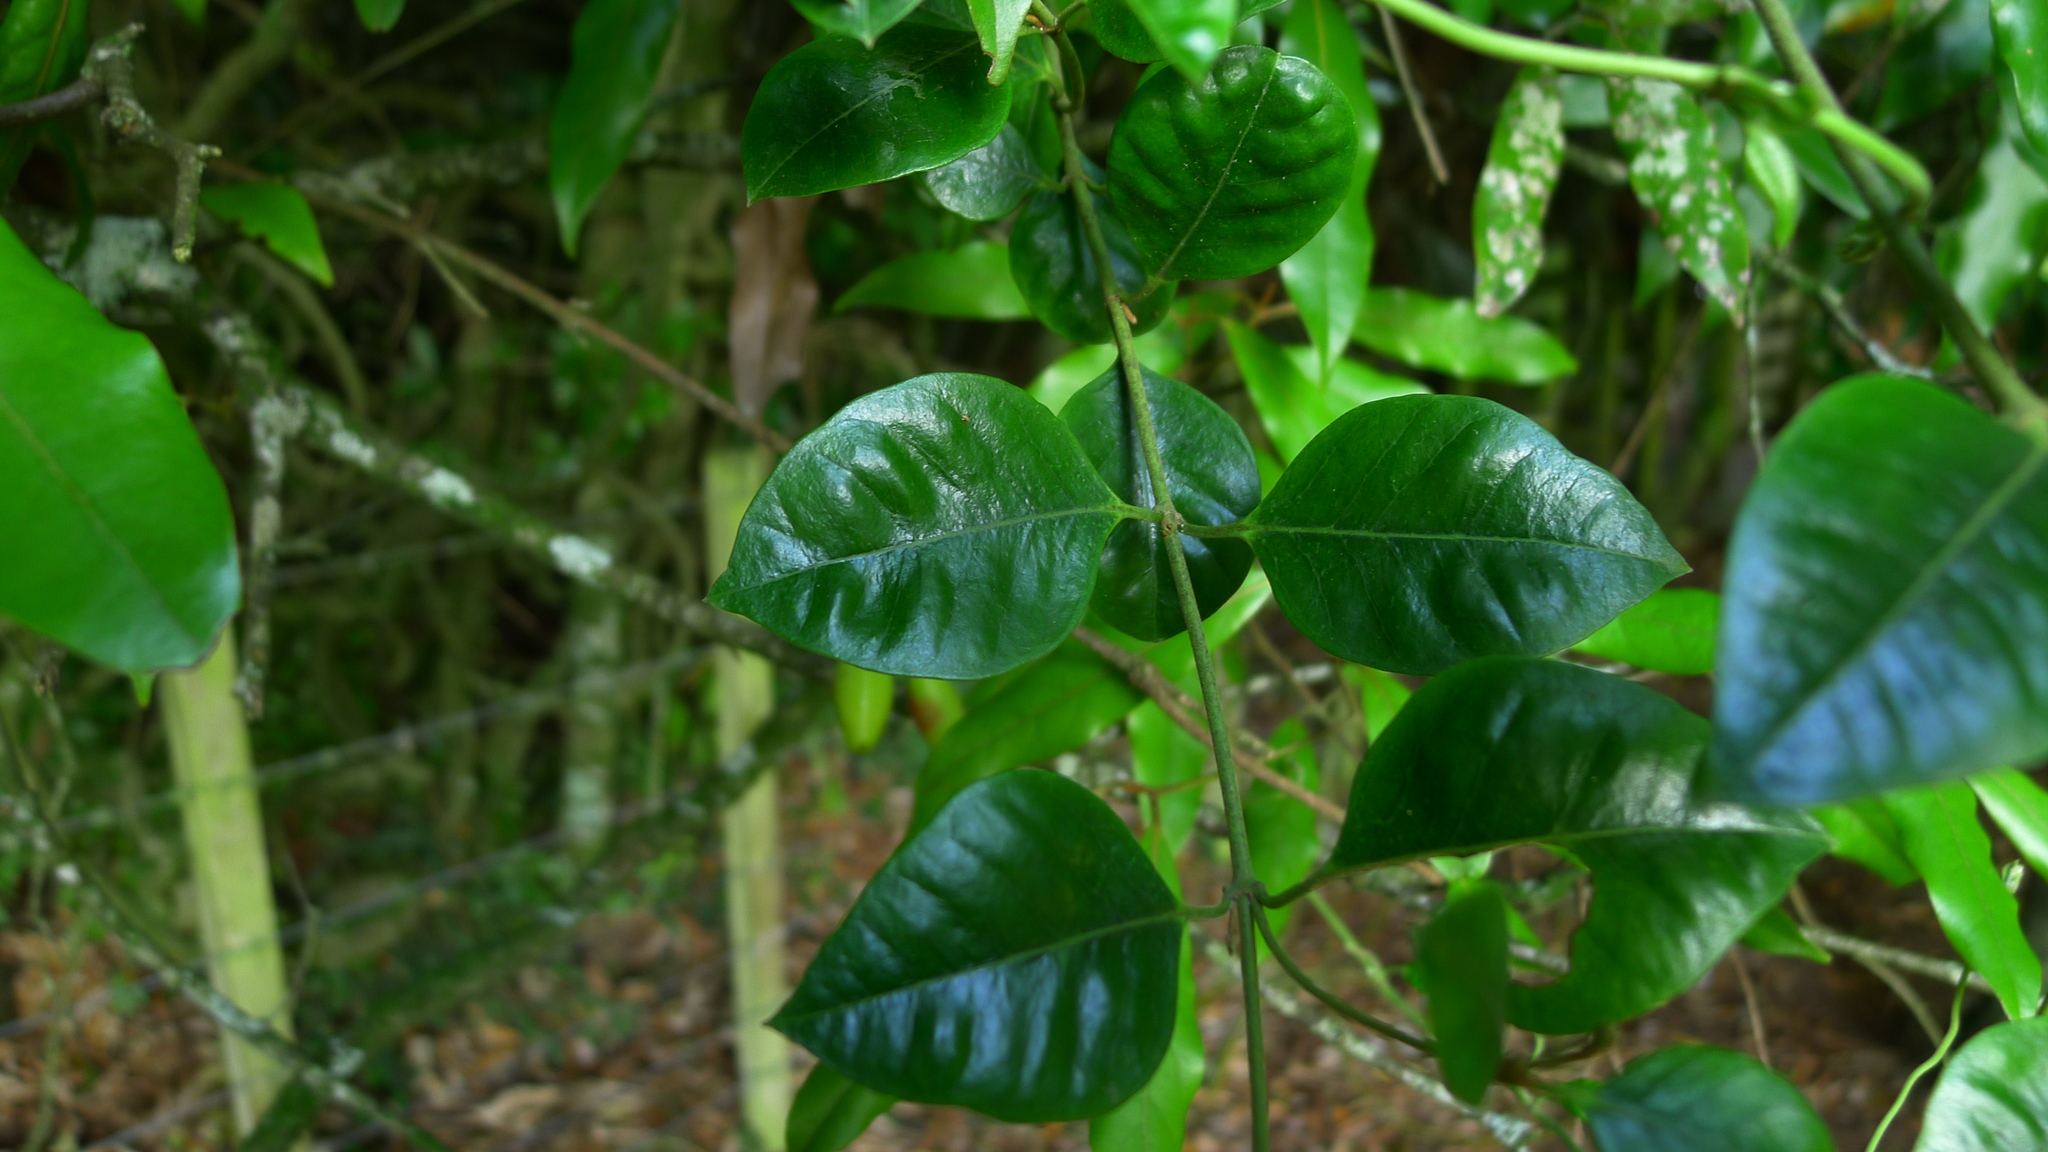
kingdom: Plantae
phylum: Tracheophyta
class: Magnoliopsida
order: Gentianales
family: Apocynaceae
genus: Parsonsia
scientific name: Parsonsia heterophylla
